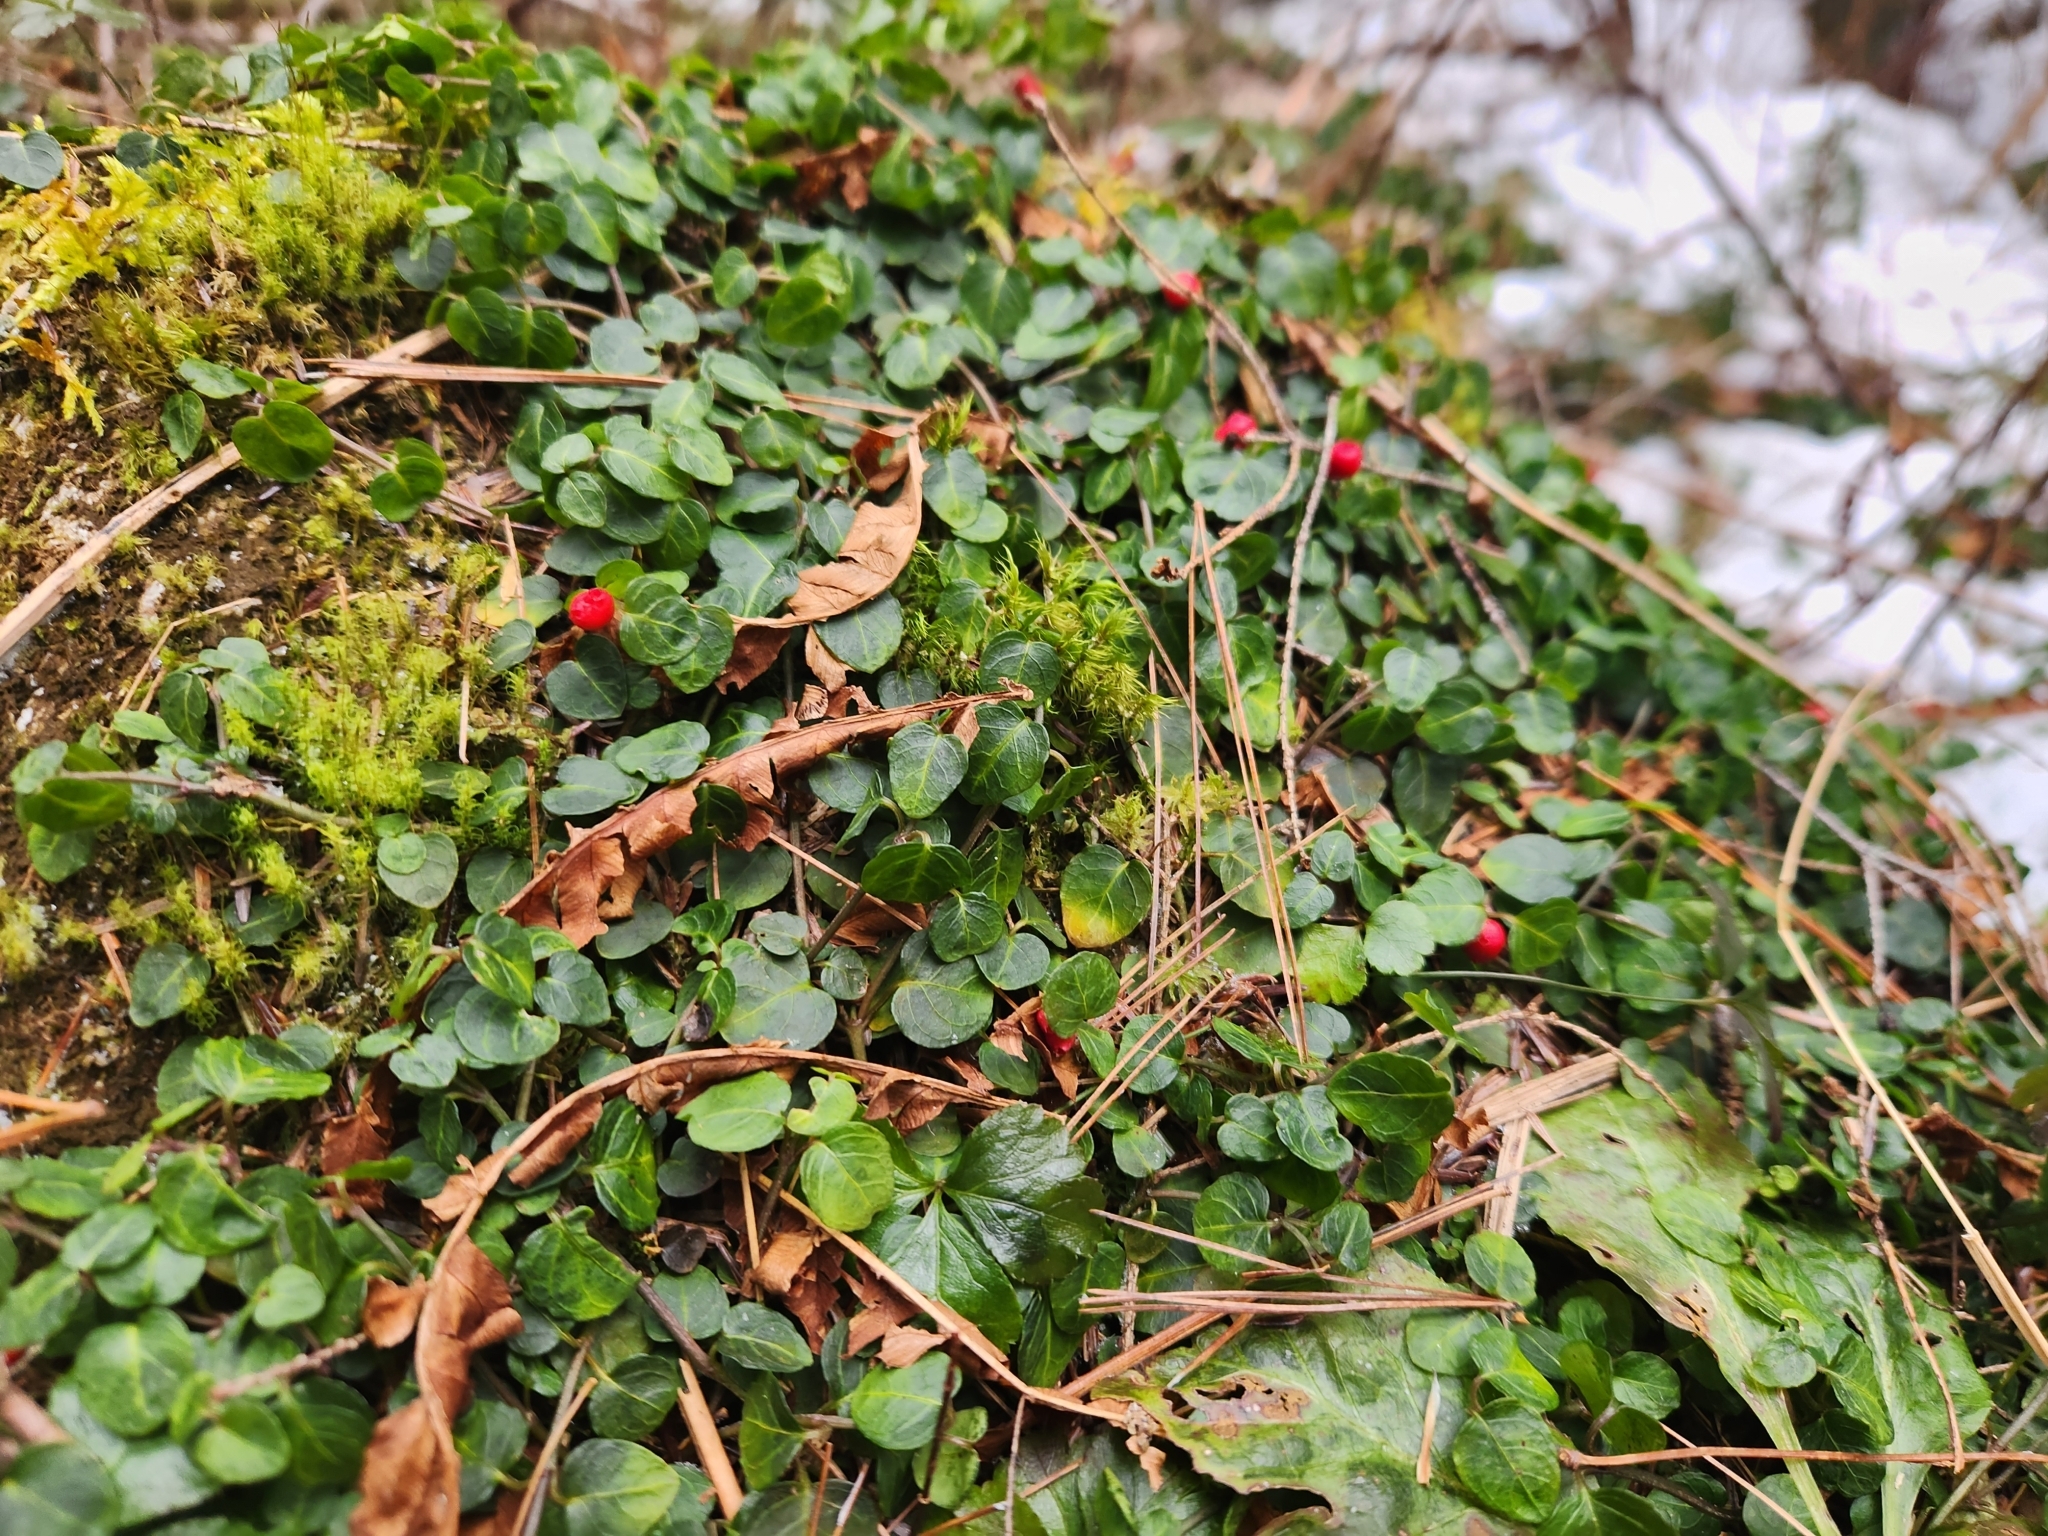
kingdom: Plantae
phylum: Tracheophyta
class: Magnoliopsida
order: Gentianales
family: Rubiaceae
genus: Mitchella
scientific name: Mitchella repens
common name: Partridge-berry
